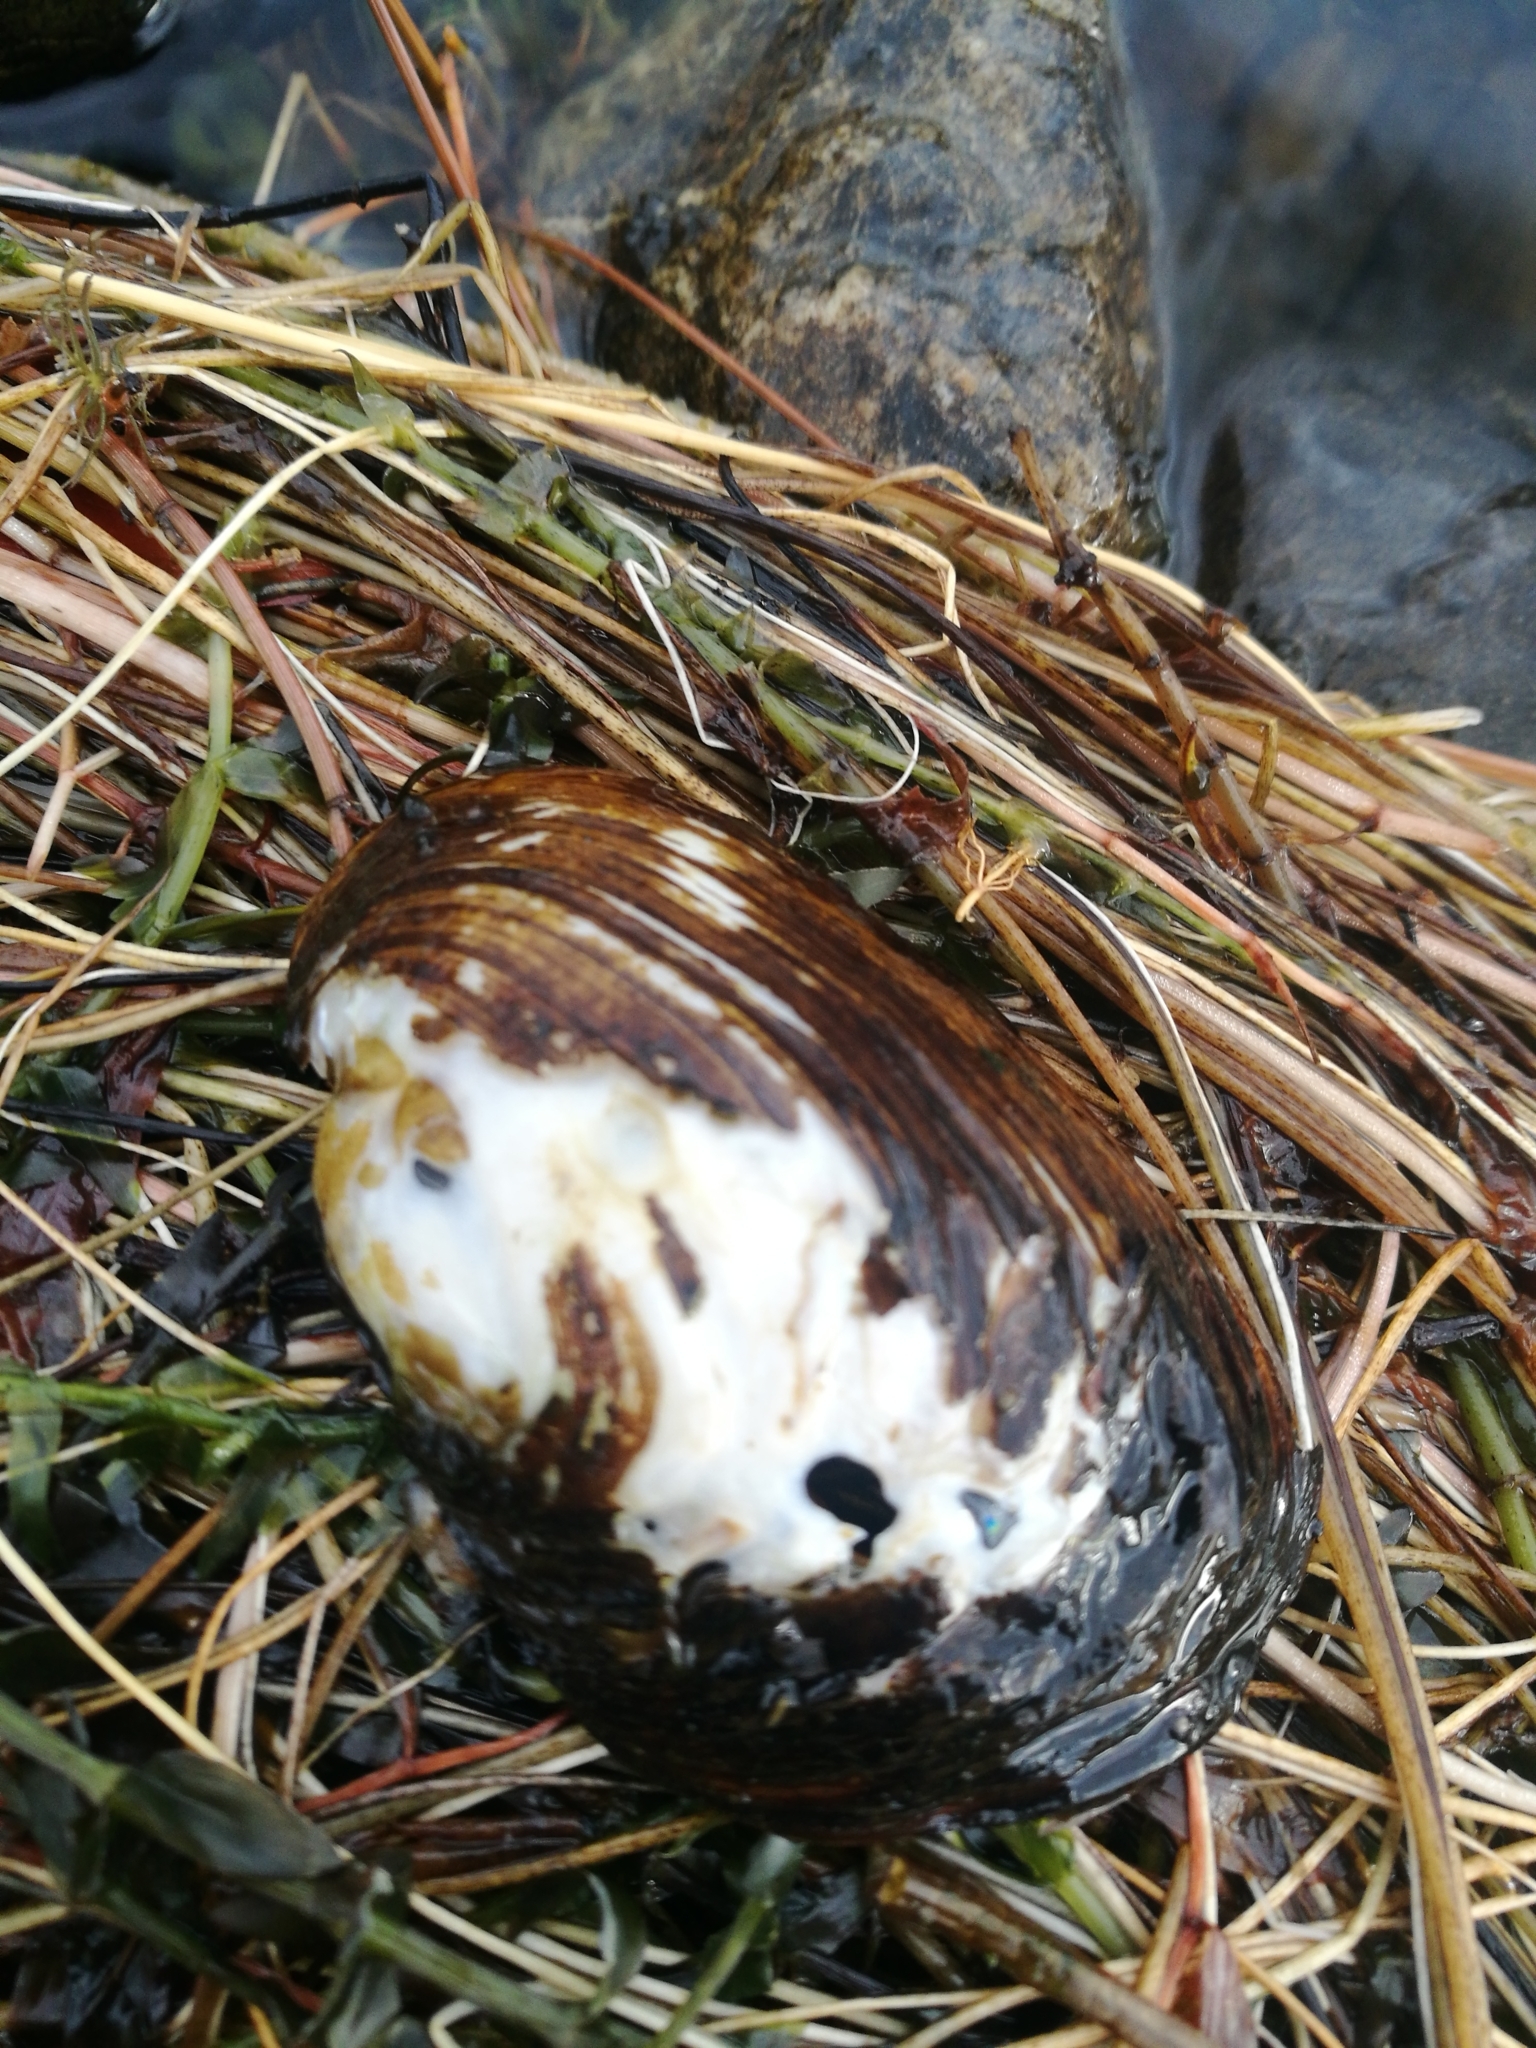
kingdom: Animalia
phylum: Mollusca
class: Bivalvia
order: Unionida
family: Hyriidae
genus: Echyridella
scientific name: Echyridella menziesii
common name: New zealand freshwater mussel
